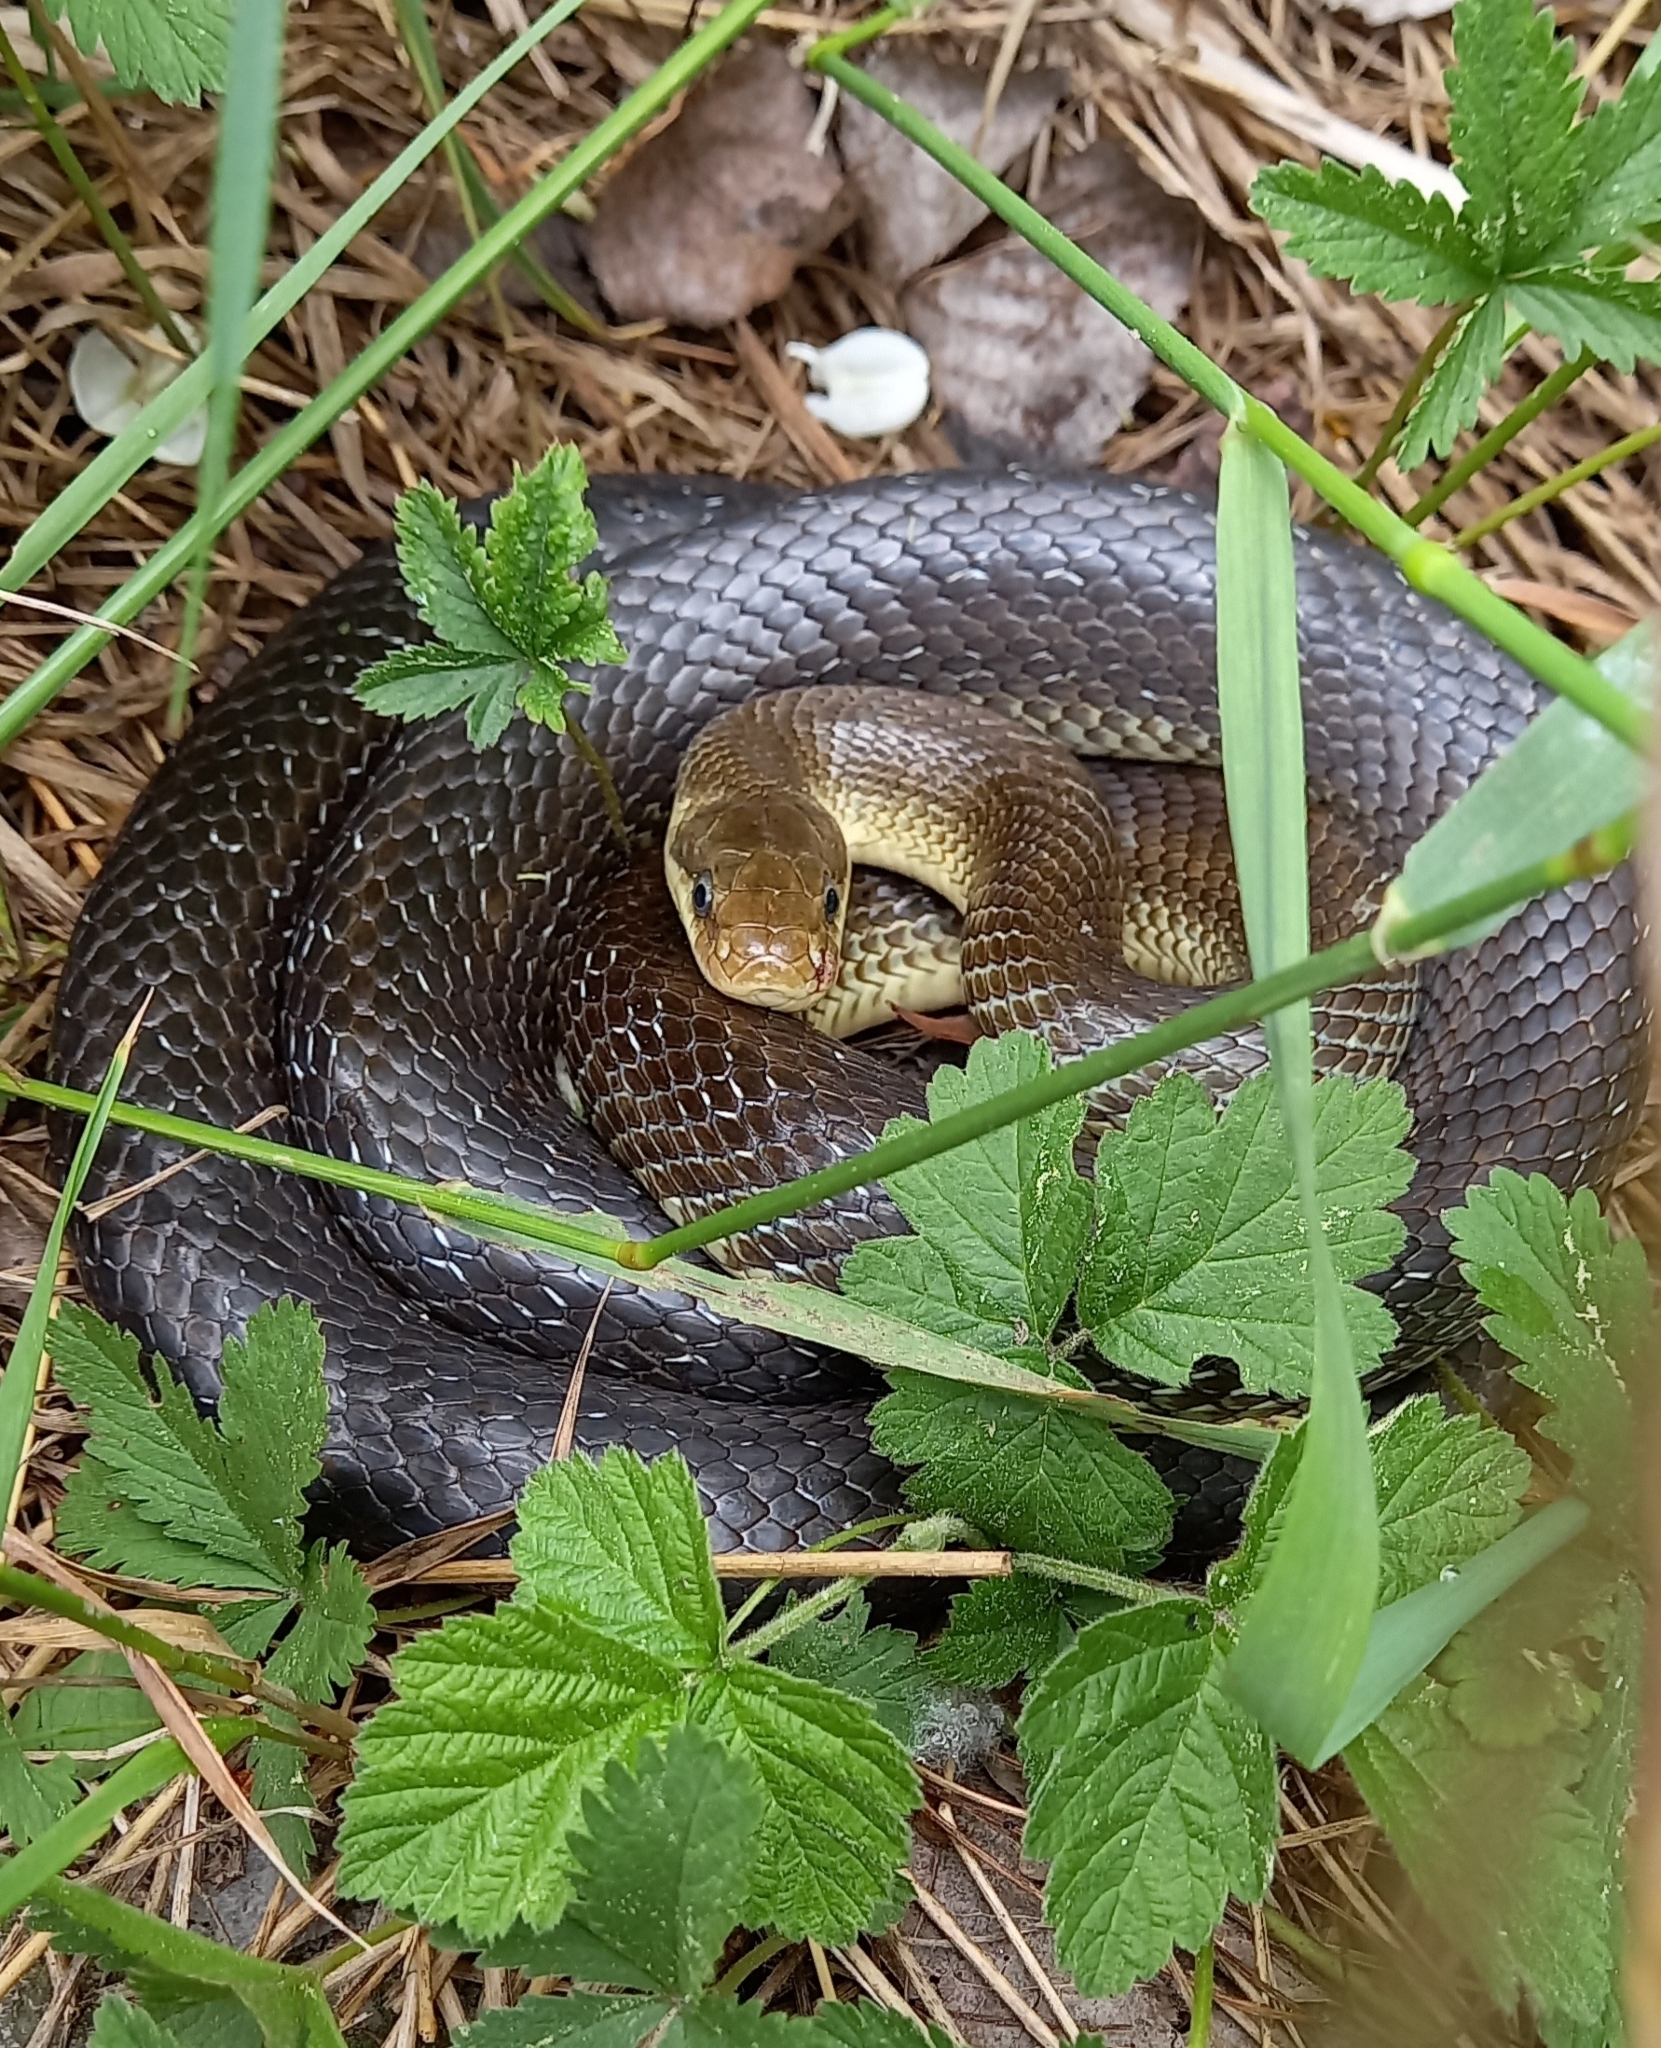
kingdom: Animalia
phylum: Chordata
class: Squamata
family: Colubridae
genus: Zamenis
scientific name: Zamenis longissimus
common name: Aesculapean snake
